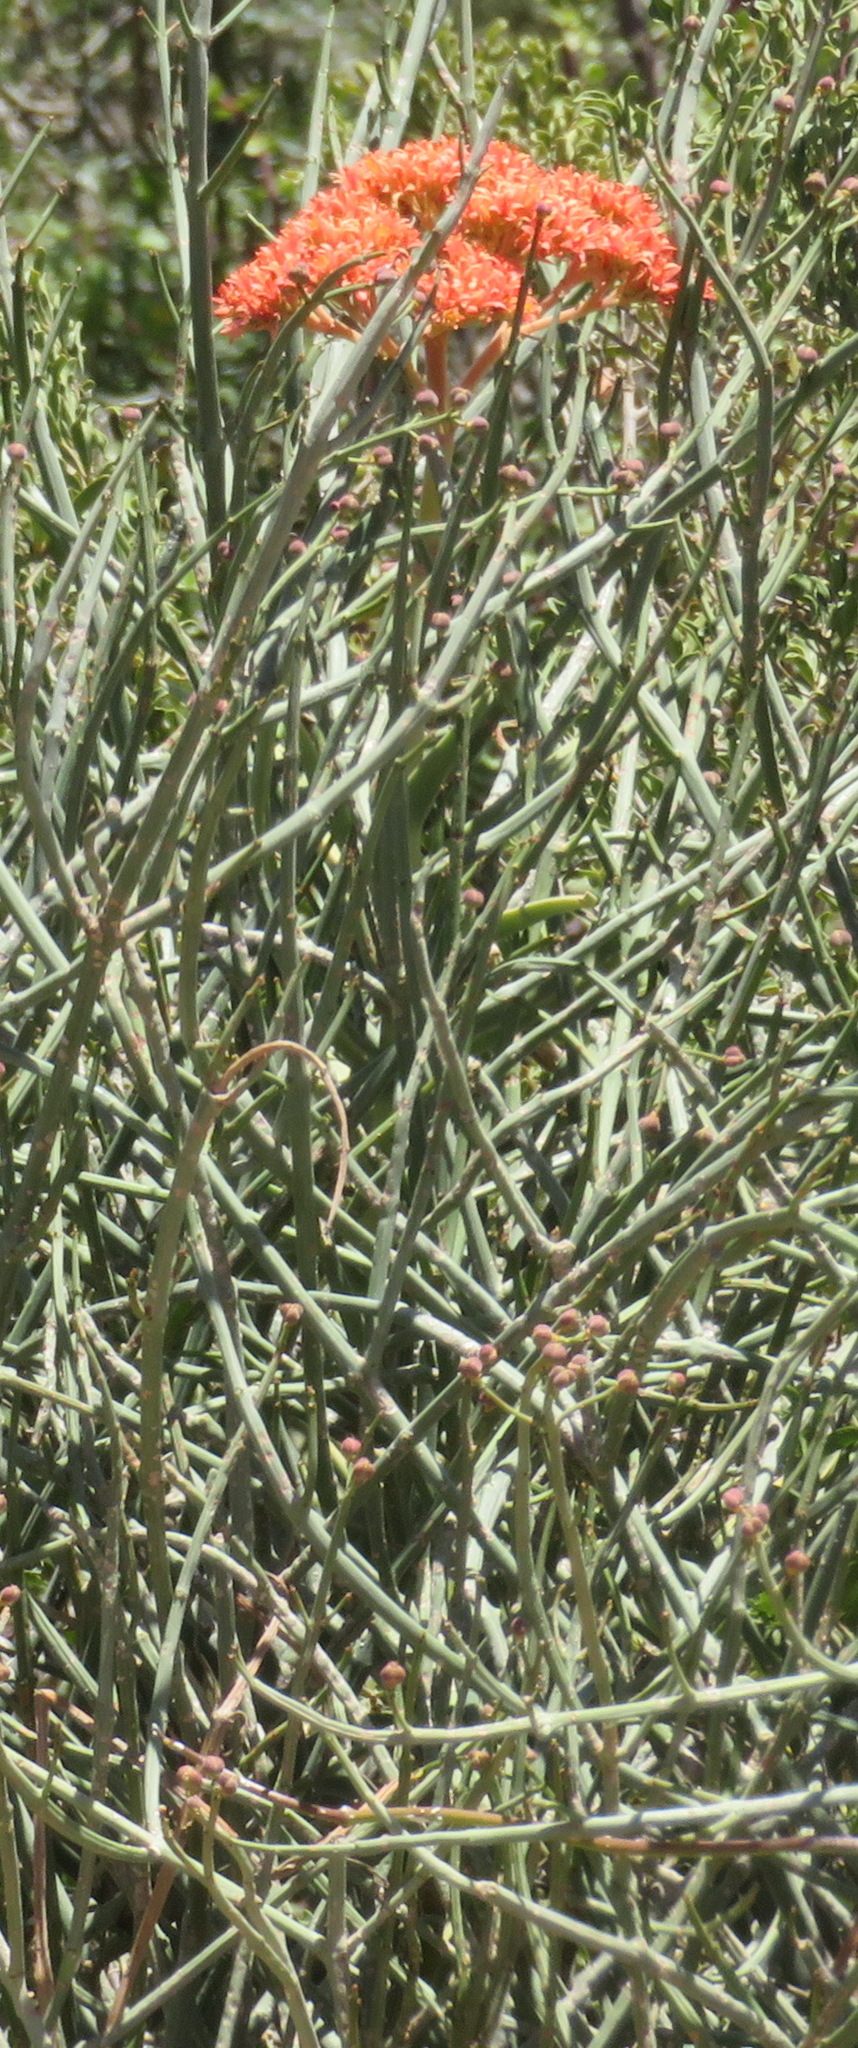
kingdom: Plantae
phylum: Tracheophyta
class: Magnoliopsida
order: Saxifragales
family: Crassulaceae
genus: Crassula
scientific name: Crassula perfoliata
